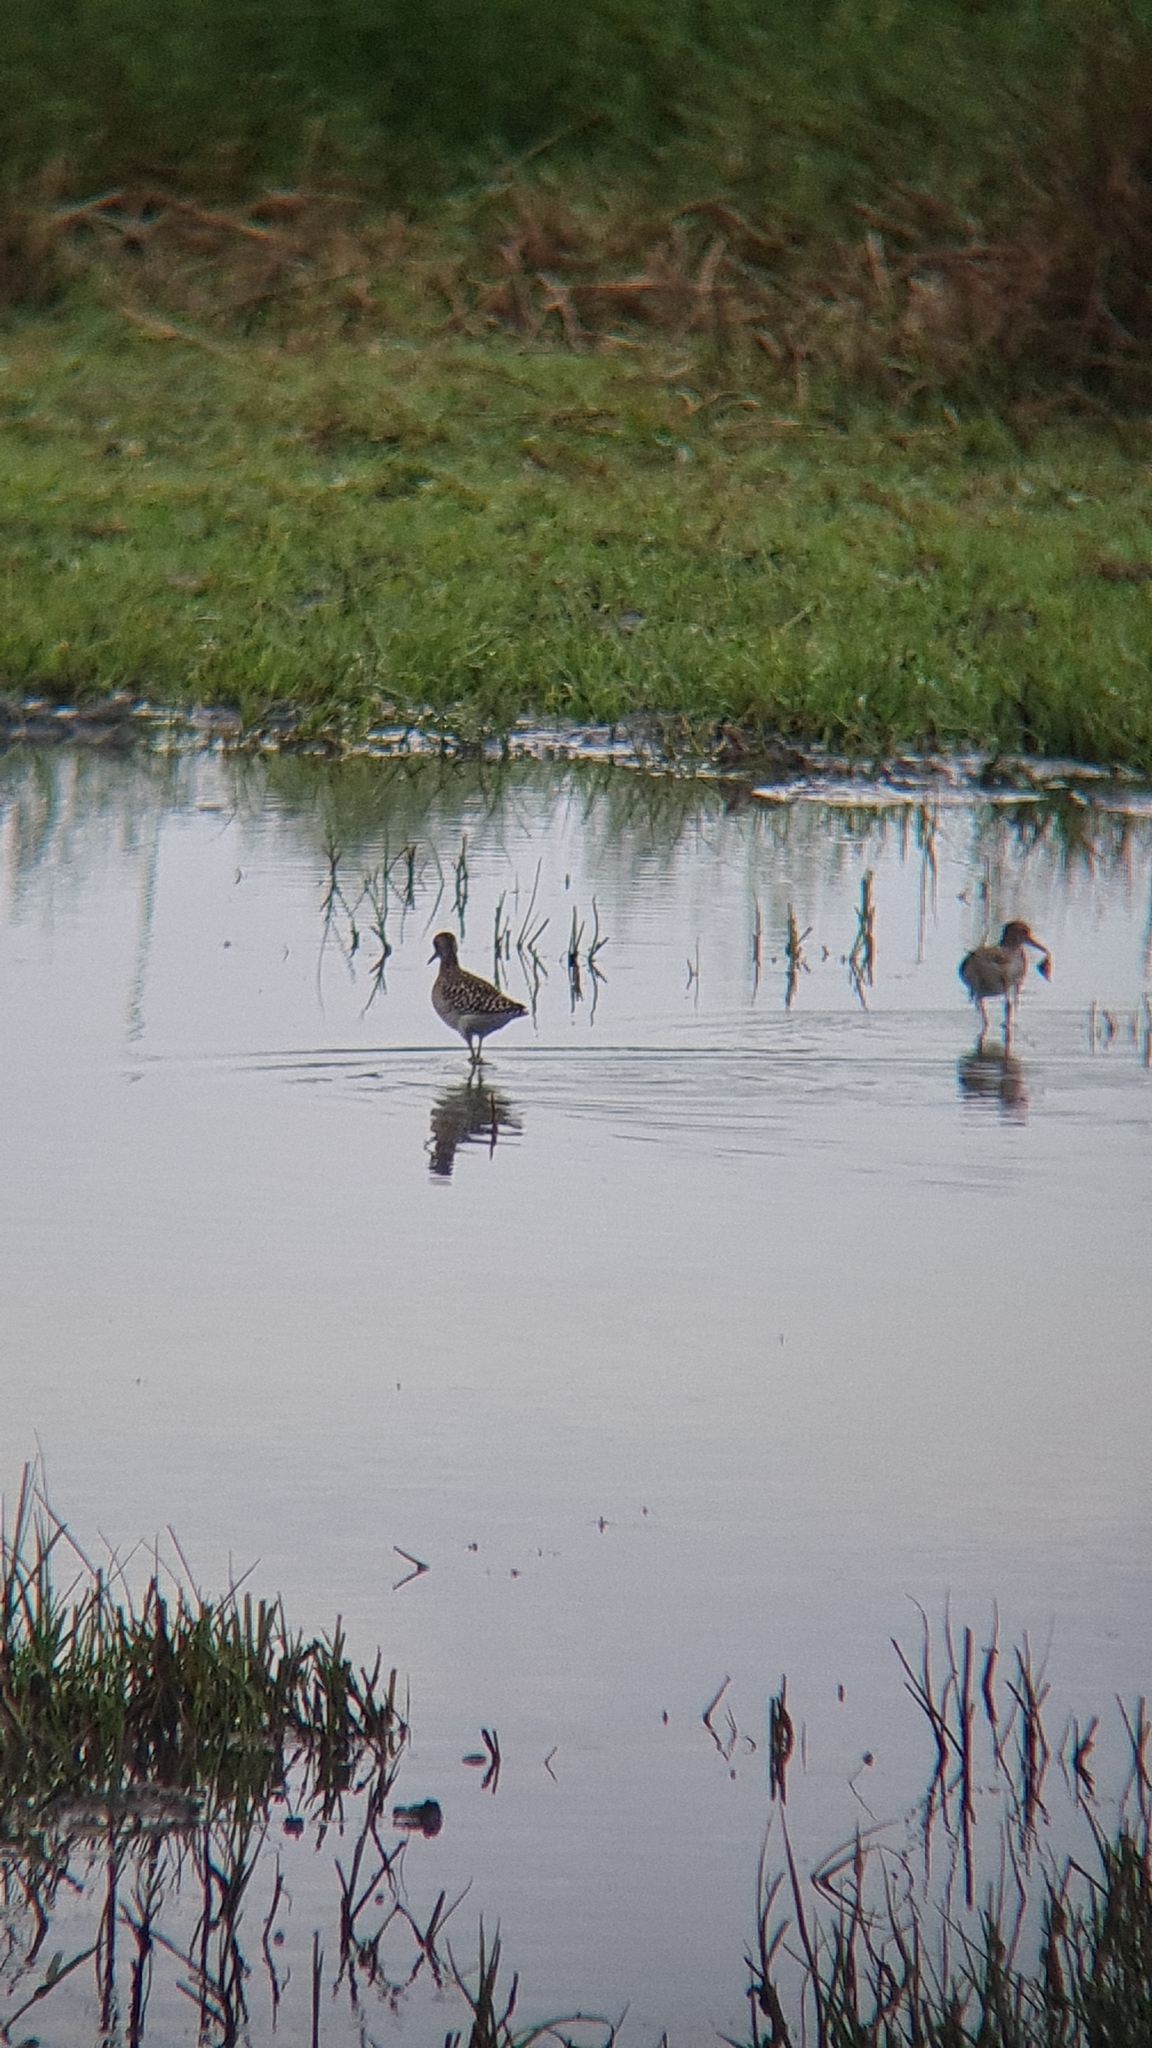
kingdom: Animalia
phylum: Chordata
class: Aves
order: Charadriiformes
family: Scolopacidae
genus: Tringa
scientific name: Tringa glareola
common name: Wood sandpiper
